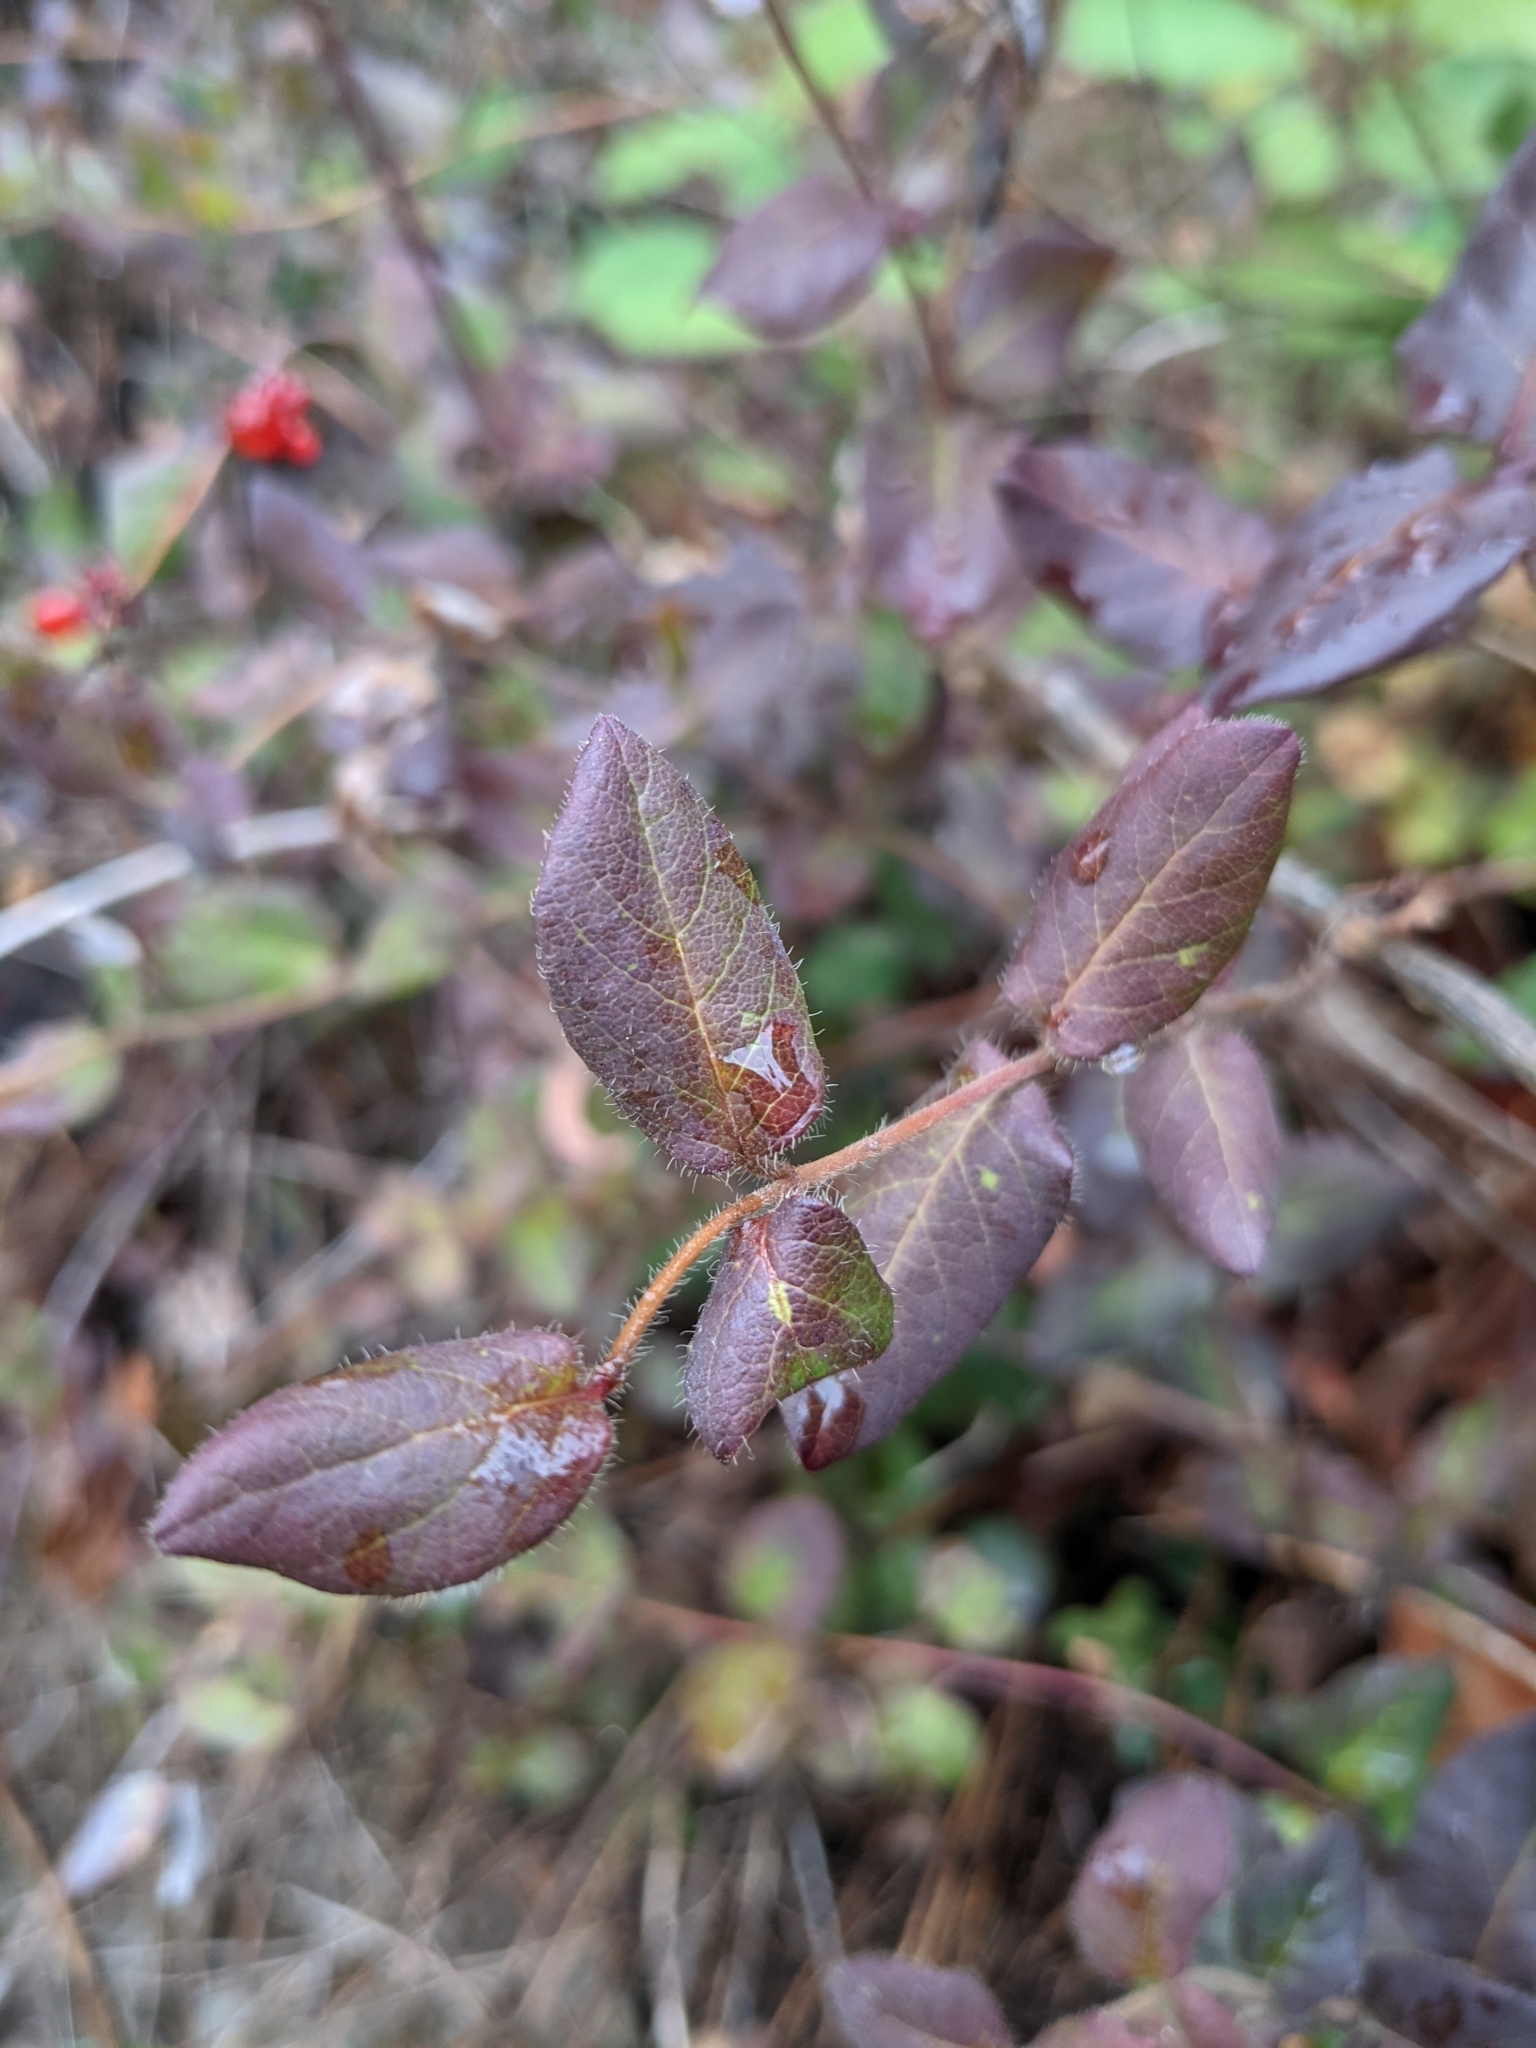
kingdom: Plantae
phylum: Tracheophyta
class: Magnoliopsida
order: Dipsacales
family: Caprifoliaceae
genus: Lonicera
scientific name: Lonicera hispidula
